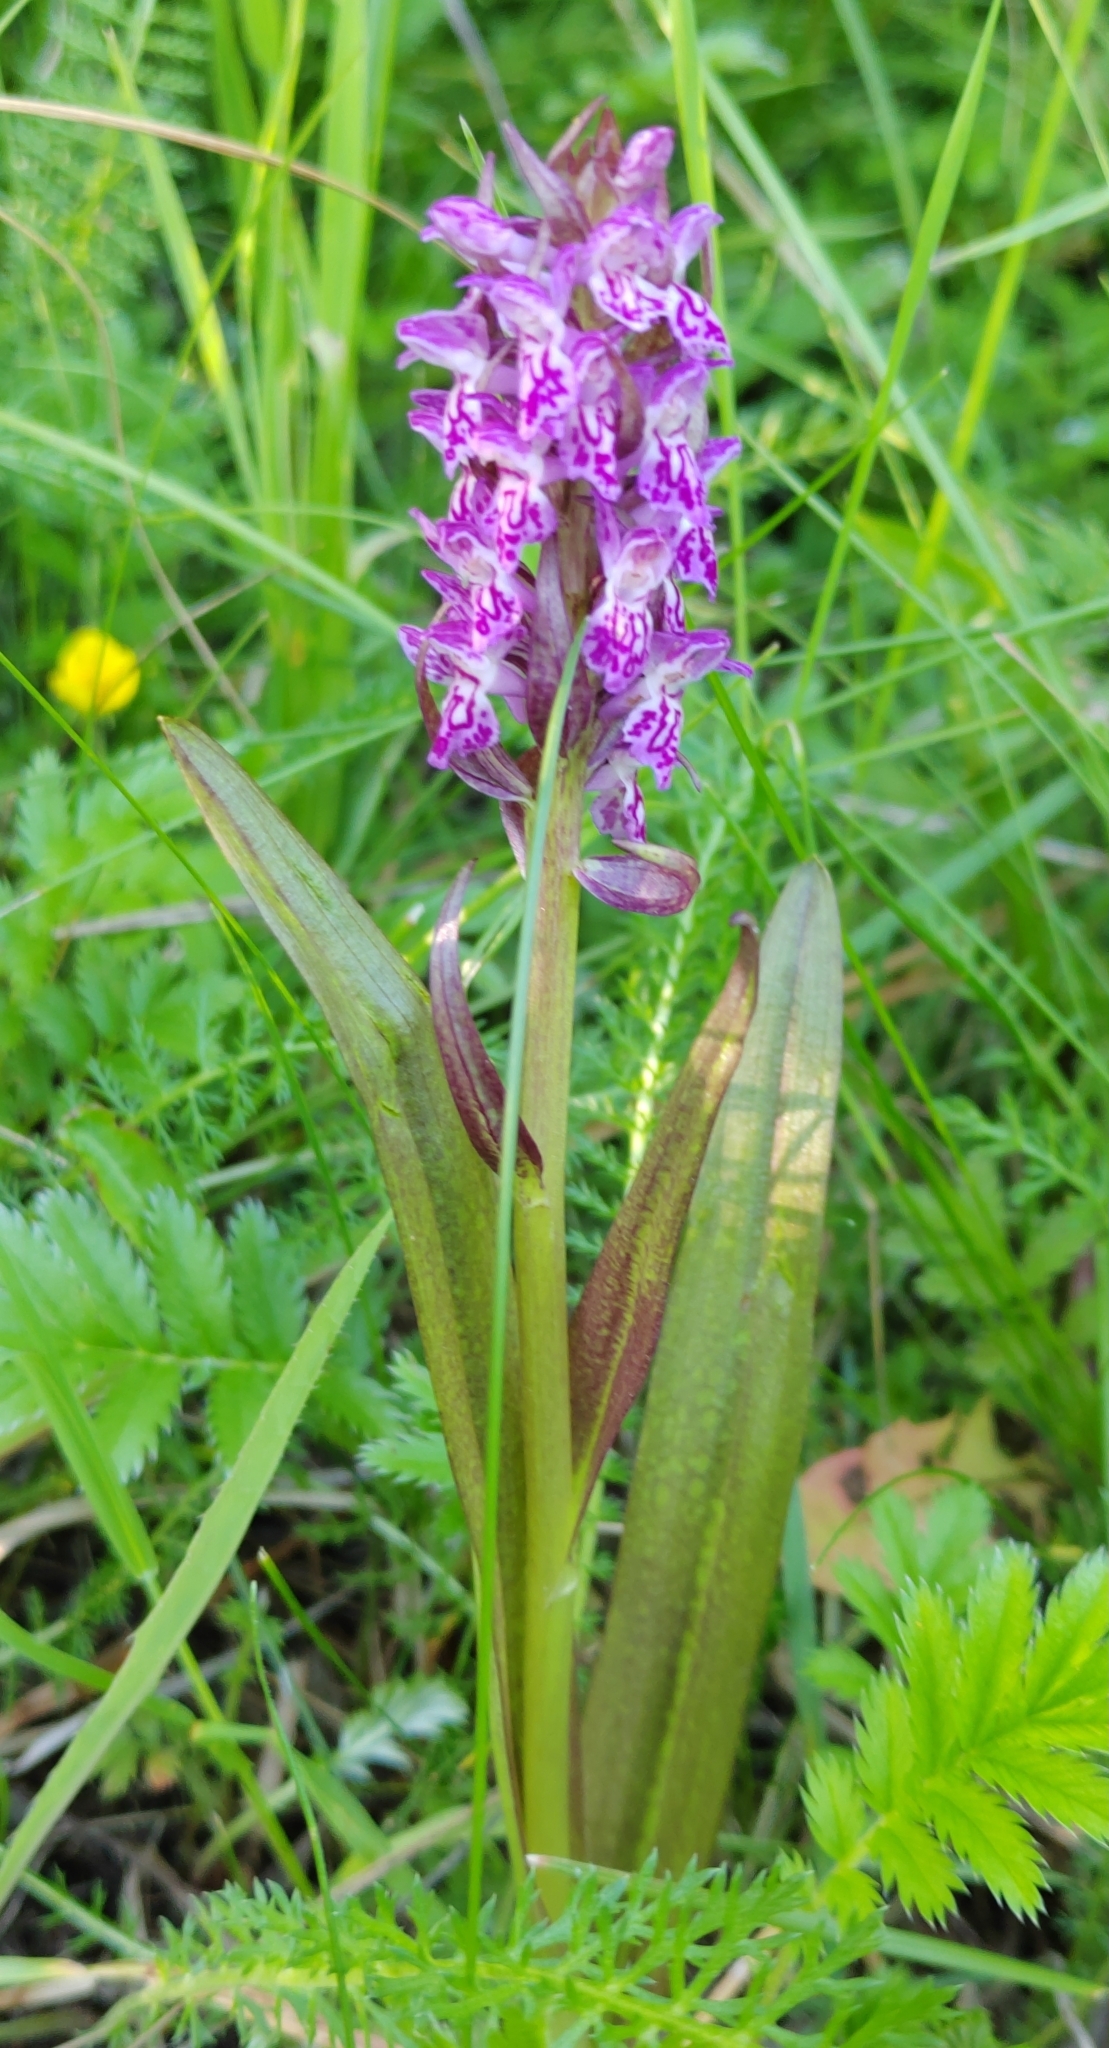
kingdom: Plantae
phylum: Tracheophyta
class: Liliopsida
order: Asparagales
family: Orchidaceae
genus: Dactylorhiza
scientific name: Dactylorhiza incarnata
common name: Early marsh-orchid
